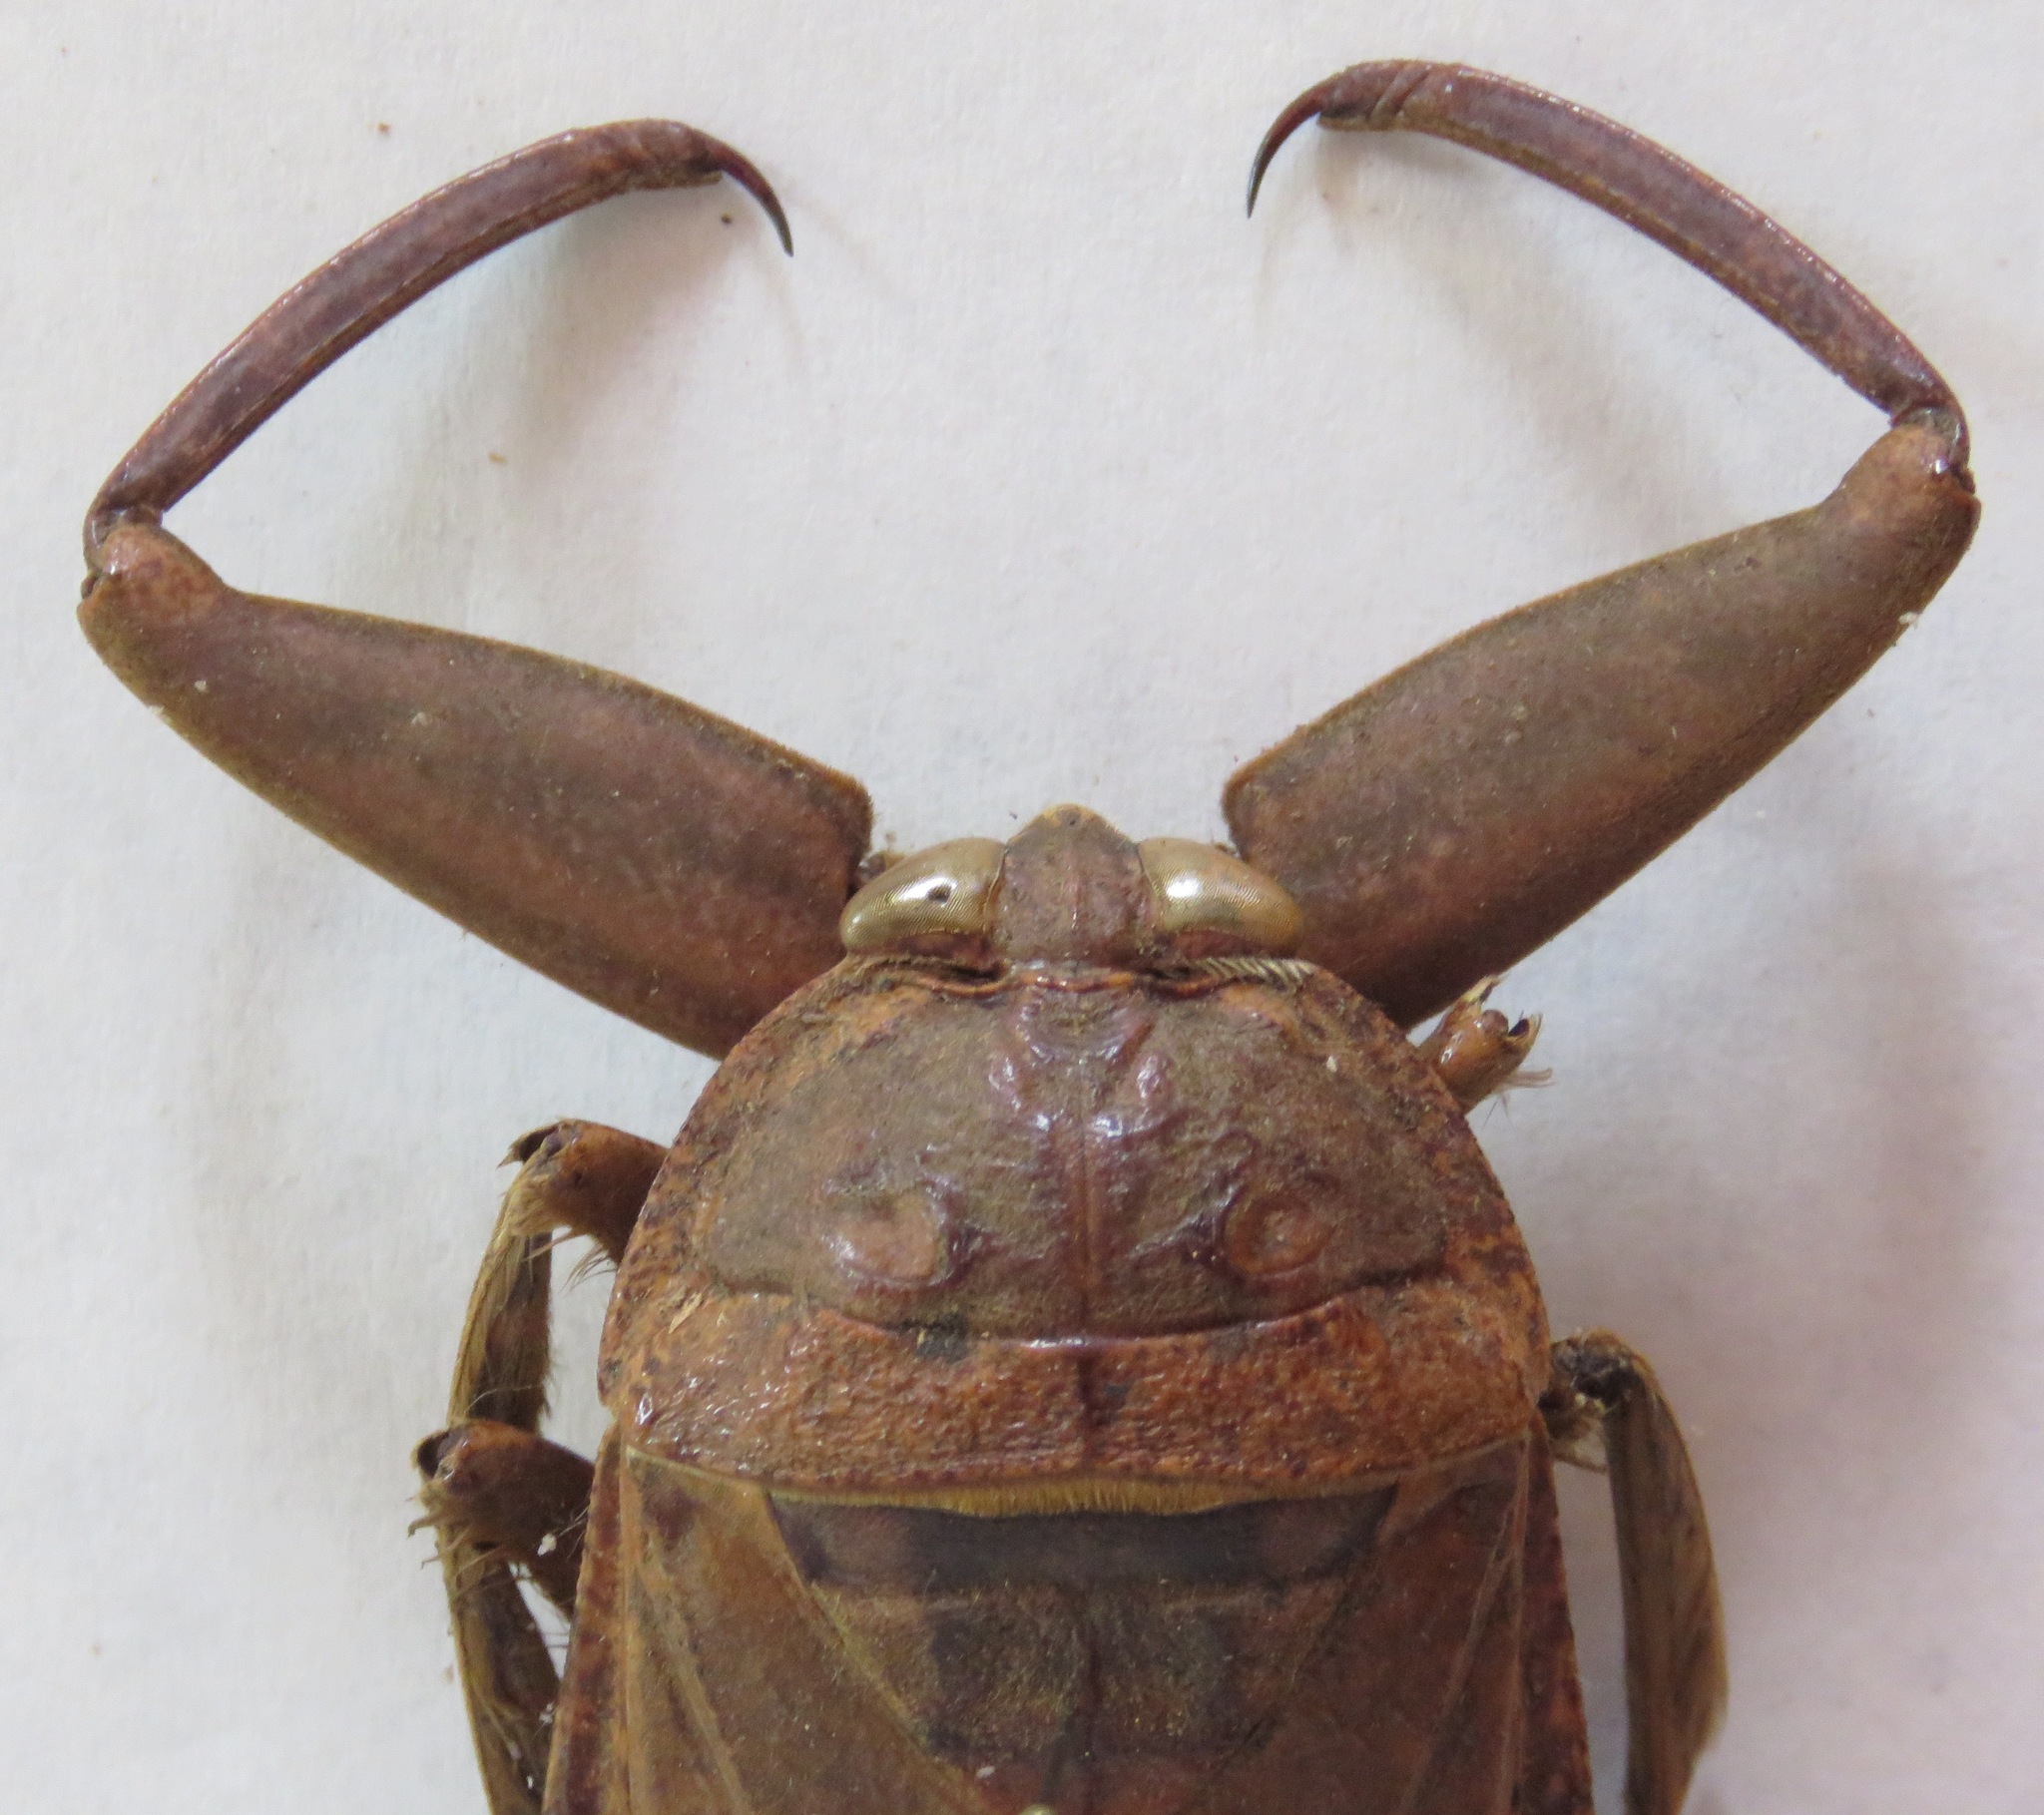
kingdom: Animalia
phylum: Arthropoda
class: Insecta
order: Hemiptera
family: Belostomatidae
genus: Lethocerus
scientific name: Lethocerus collossicus
